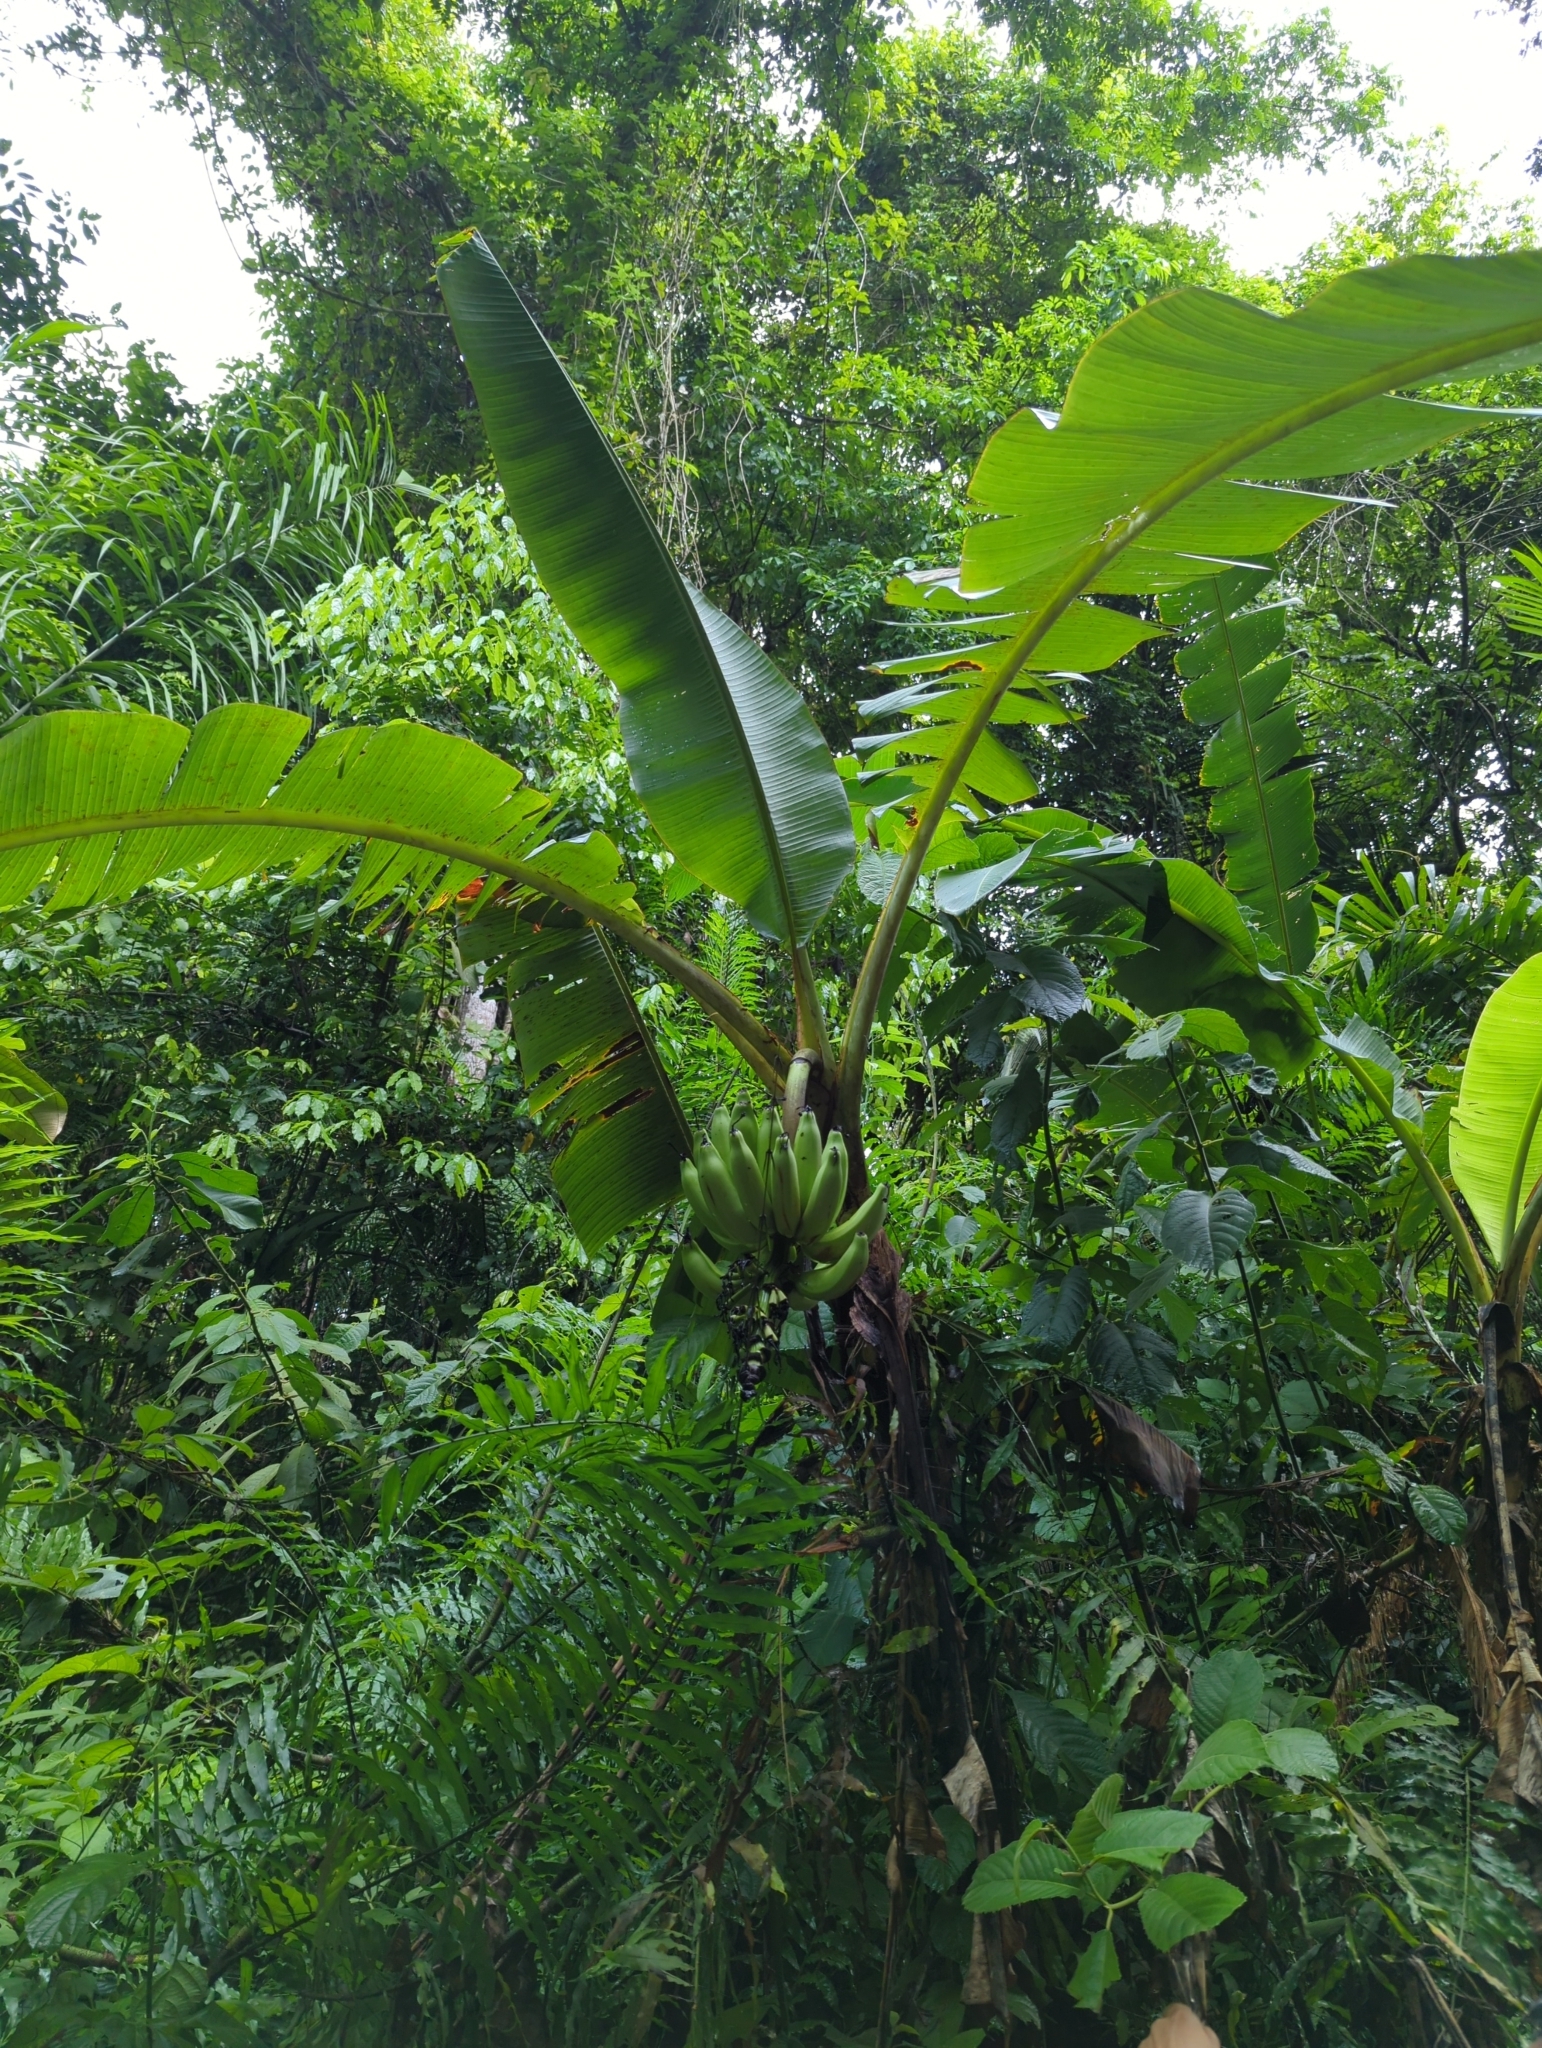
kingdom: Plantae
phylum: Tracheophyta
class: Liliopsida
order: Zingiberales
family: Musaceae
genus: Musa
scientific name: Musa acuminata
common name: Edible banana
